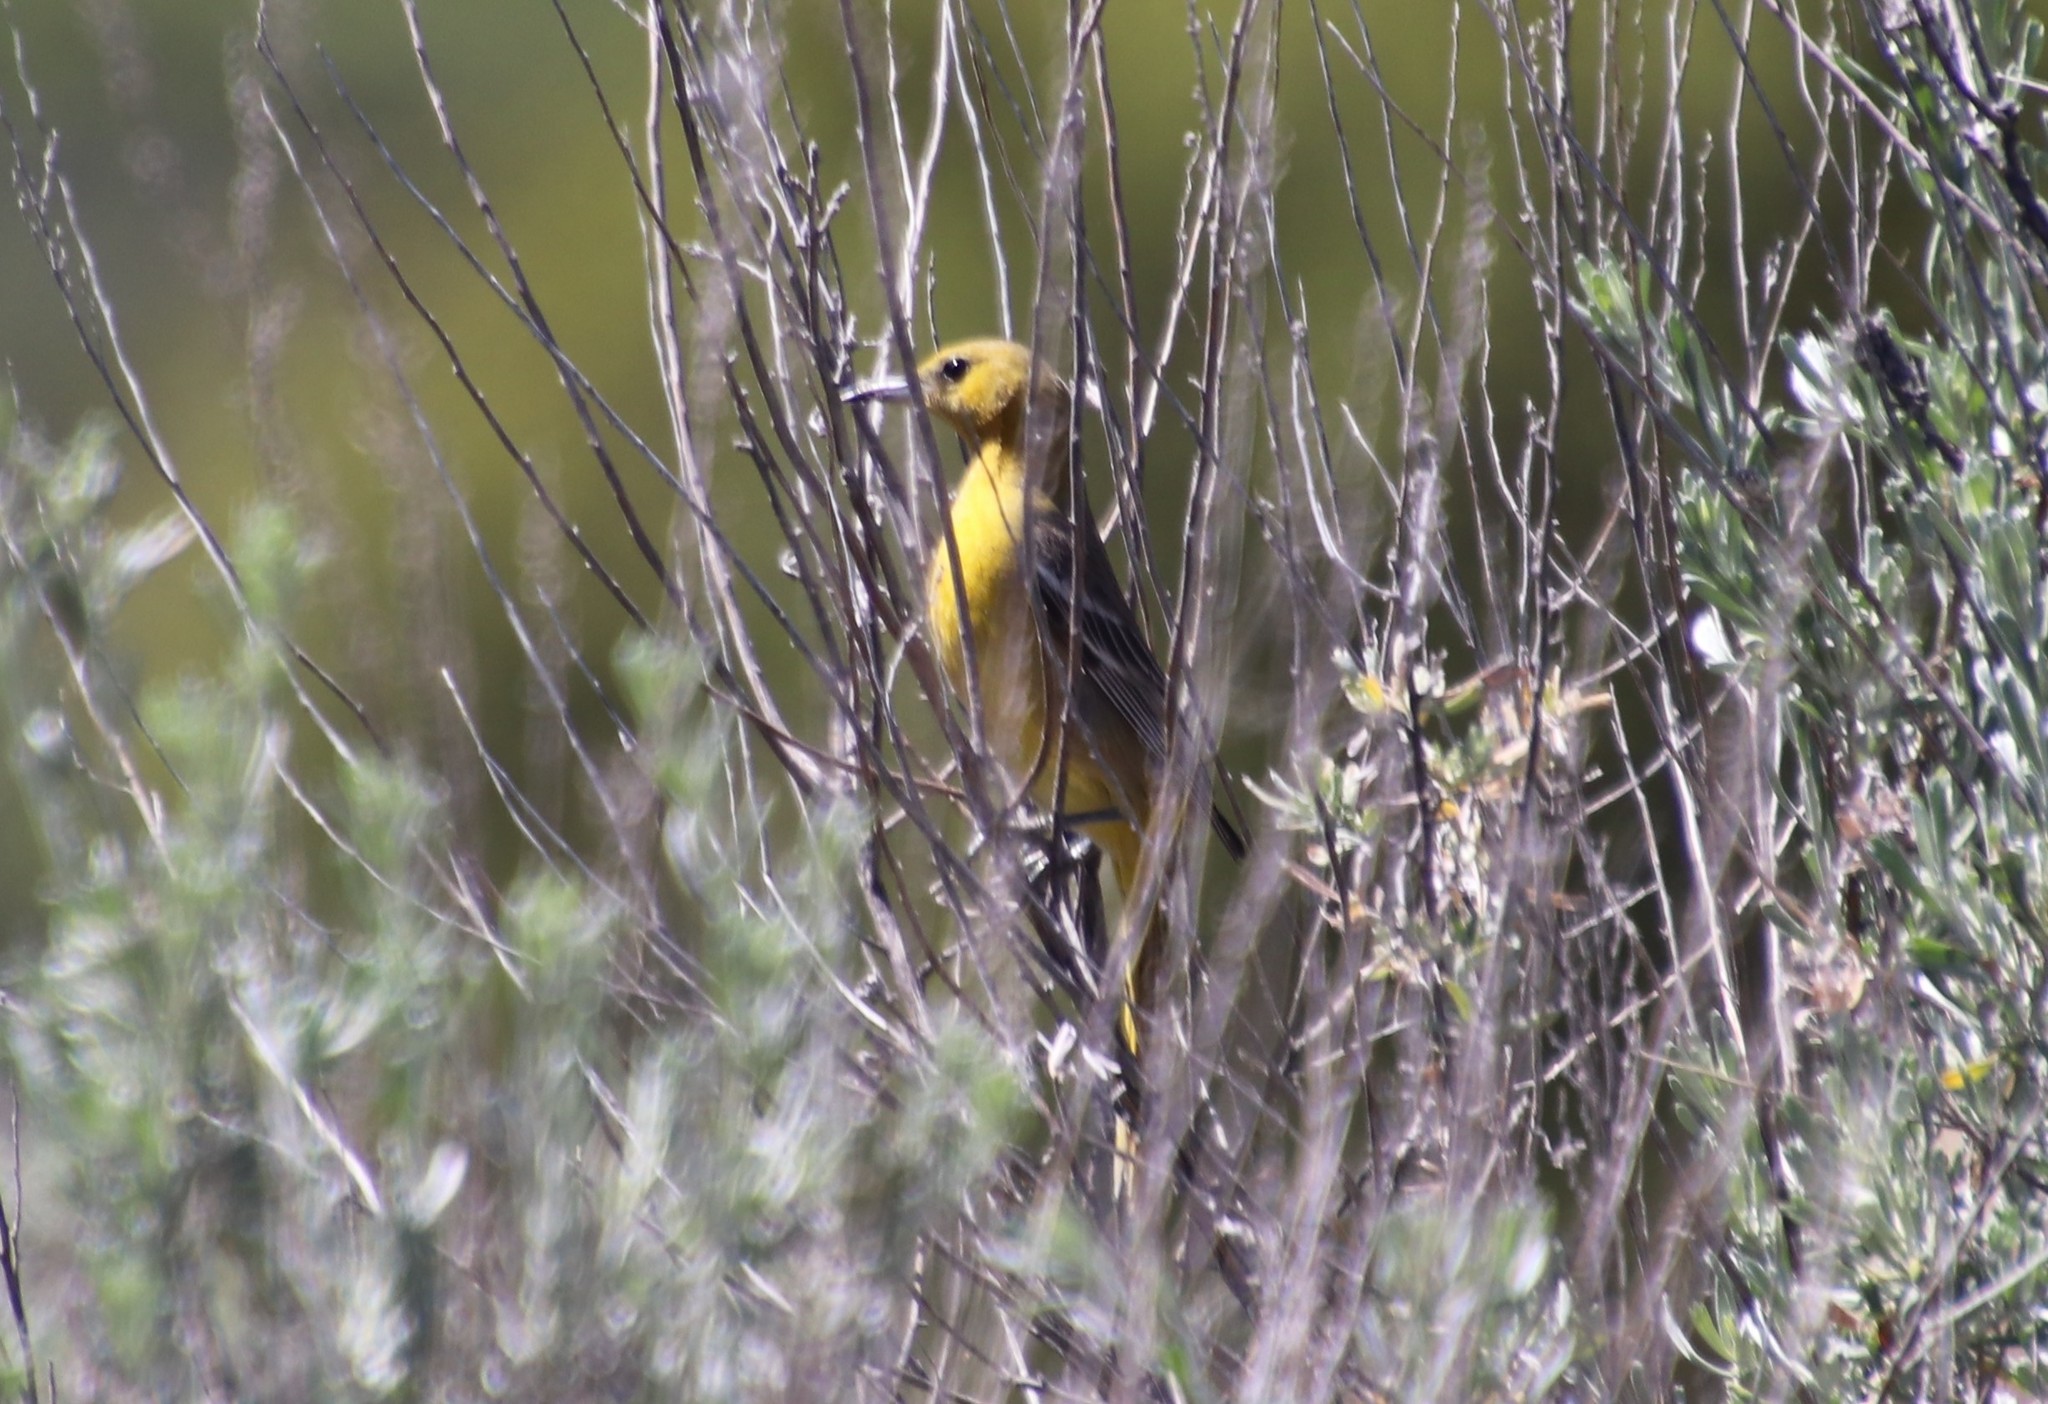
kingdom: Animalia
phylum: Chordata
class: Aves
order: Passeriformes
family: Icteridae
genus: Icterus
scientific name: Icterus cucullatus
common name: Hooded oriole
